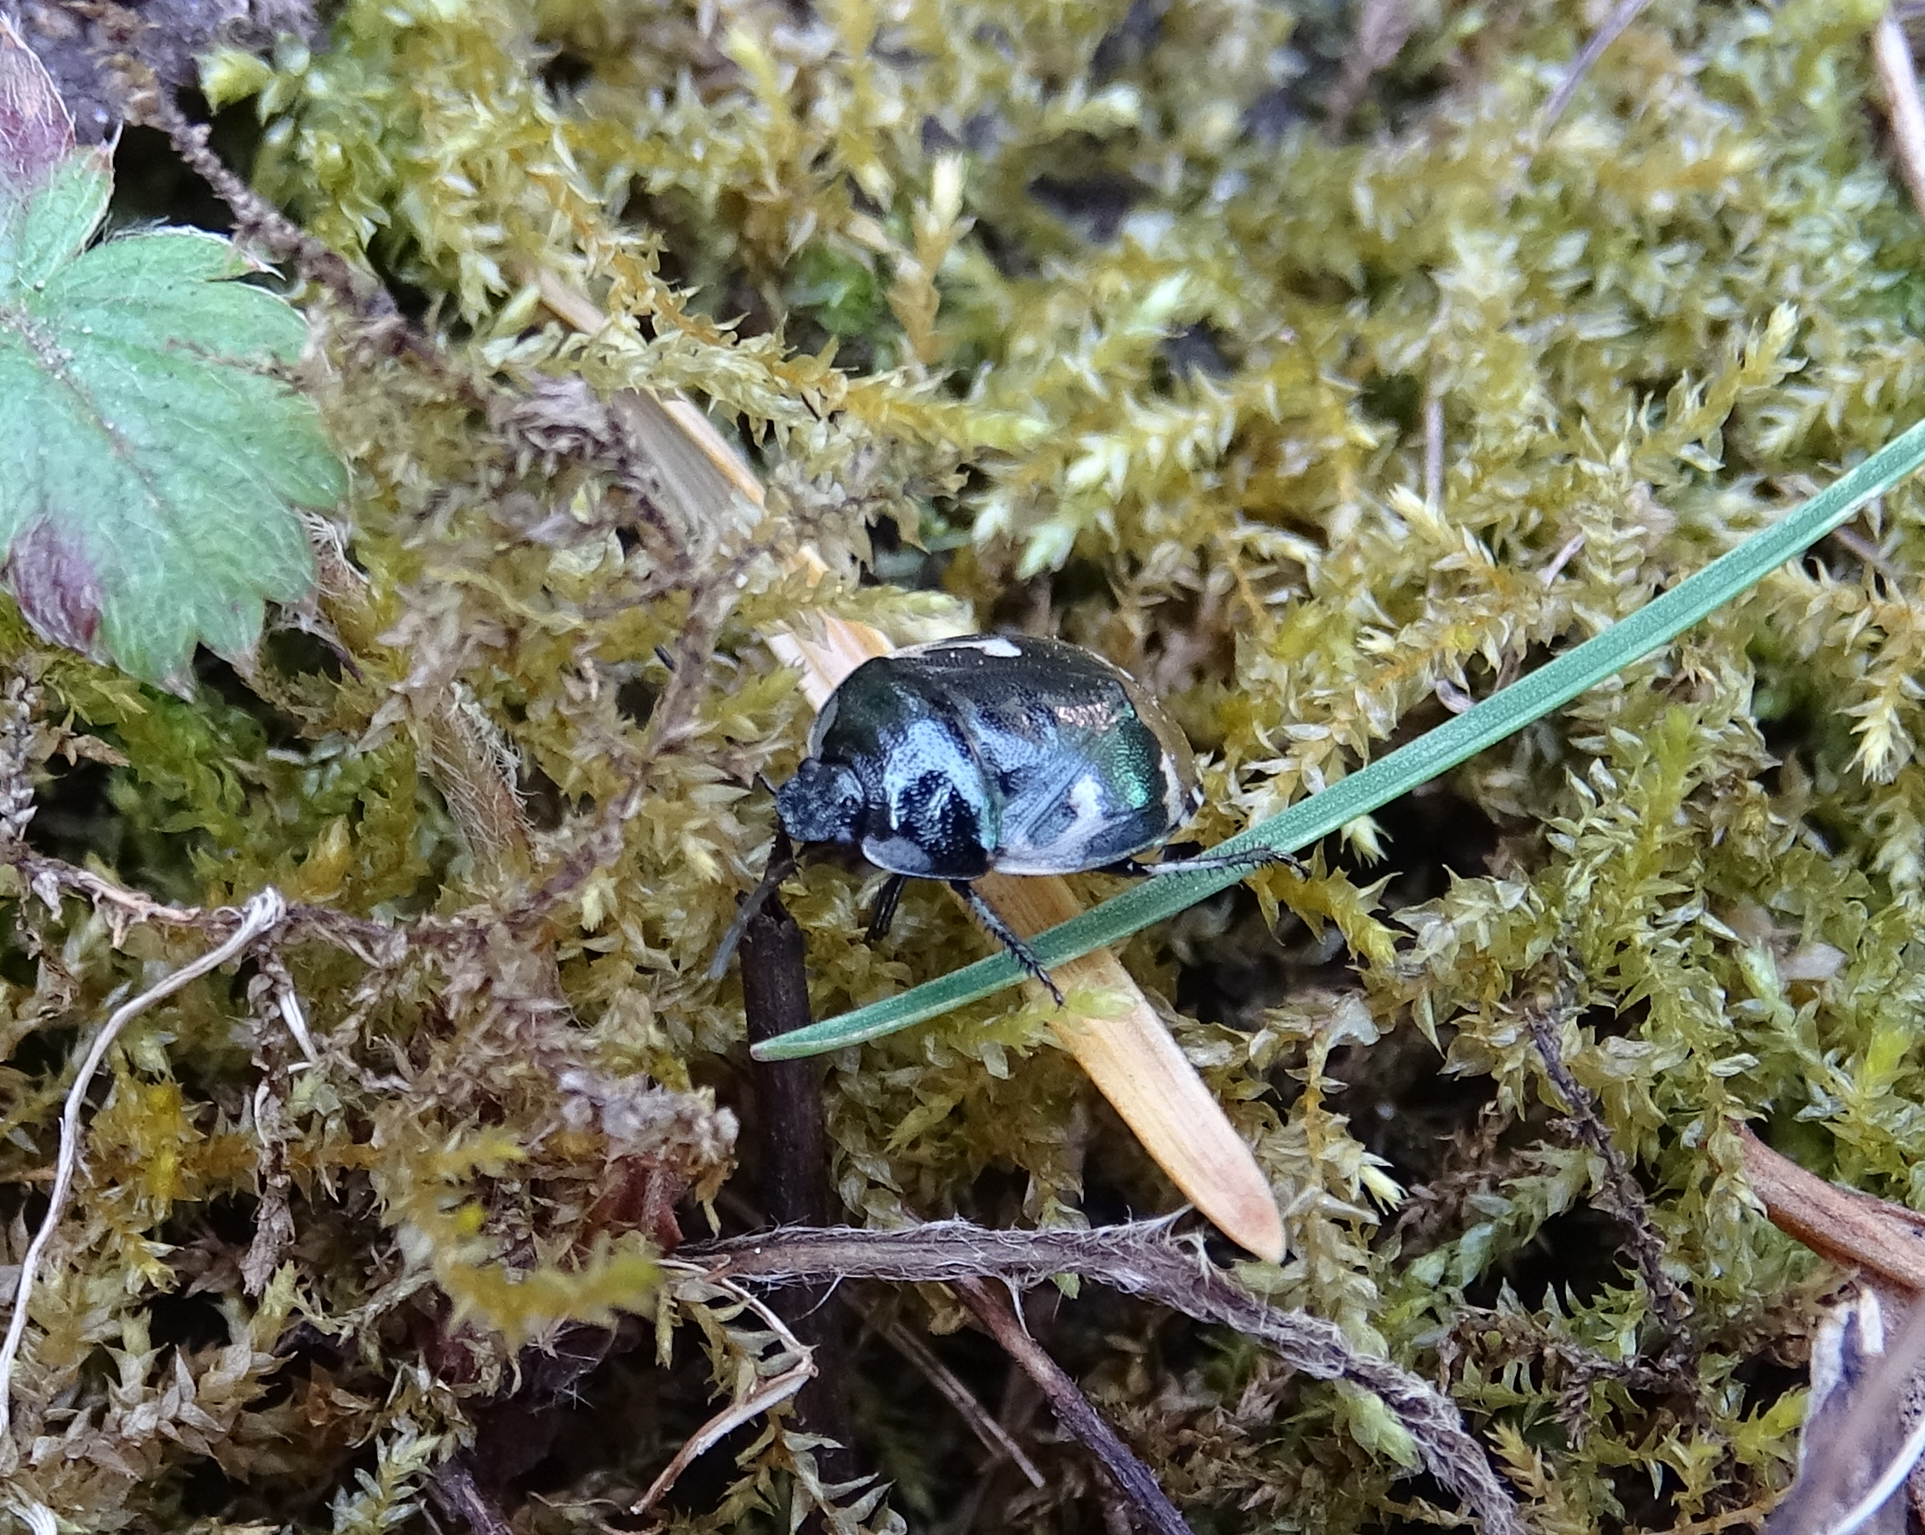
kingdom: Animalia
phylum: Arthropoda
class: Insecta
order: Hemiptera
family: Cydnidae
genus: Tritomegas
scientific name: Tritomegas bicolor
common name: Pied shieldbug
